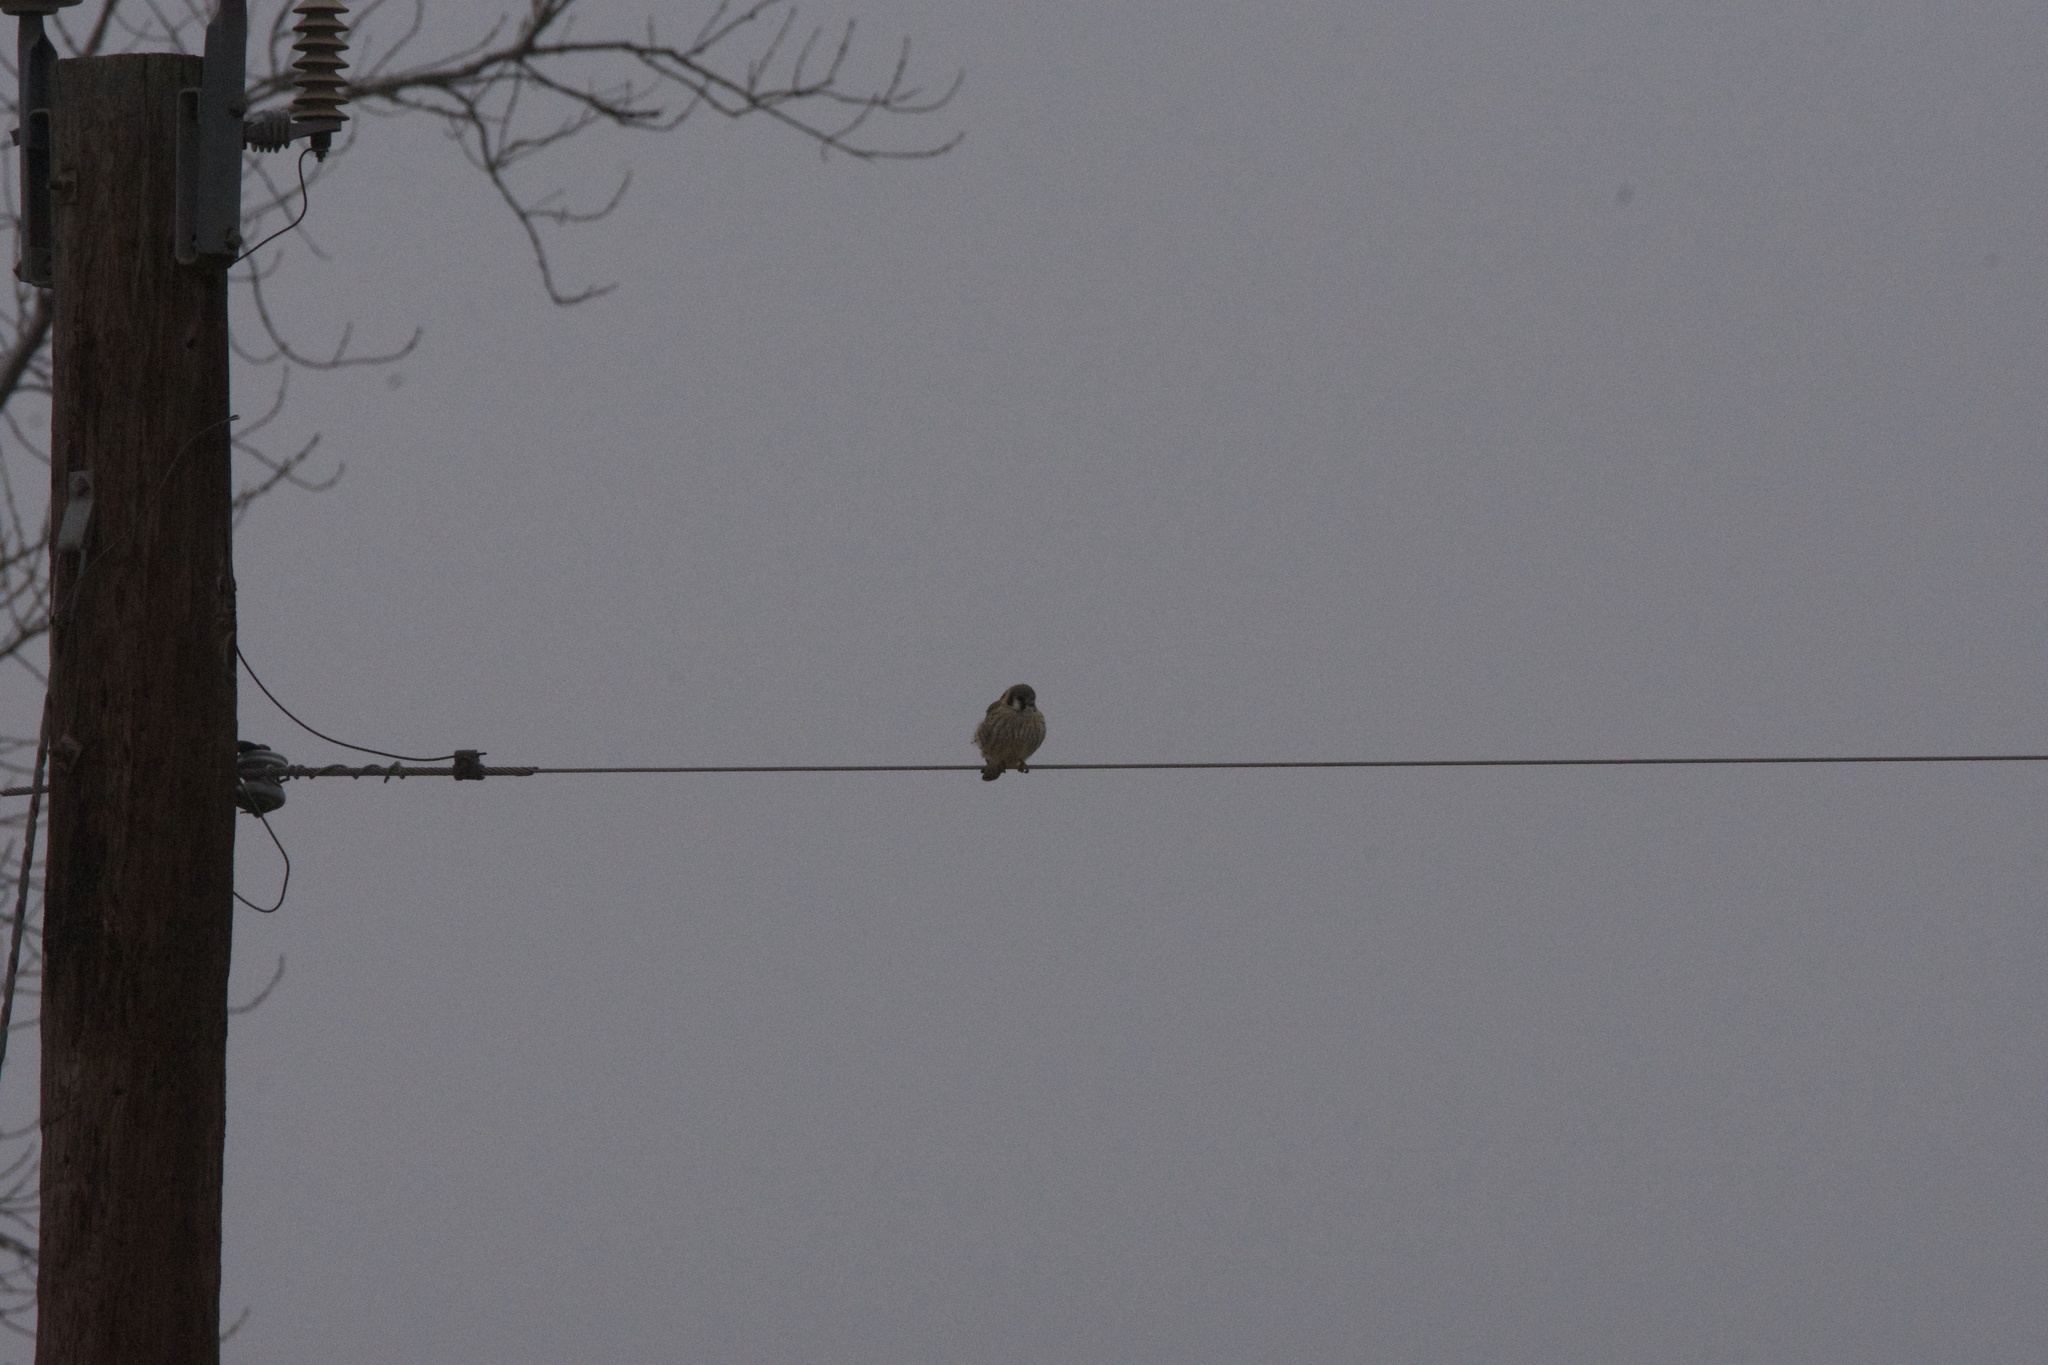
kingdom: Animalia
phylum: Chordata
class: Aves
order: Falconiformes
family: Falconidae
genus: Falco
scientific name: Falco sparverius
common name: American kestrel
